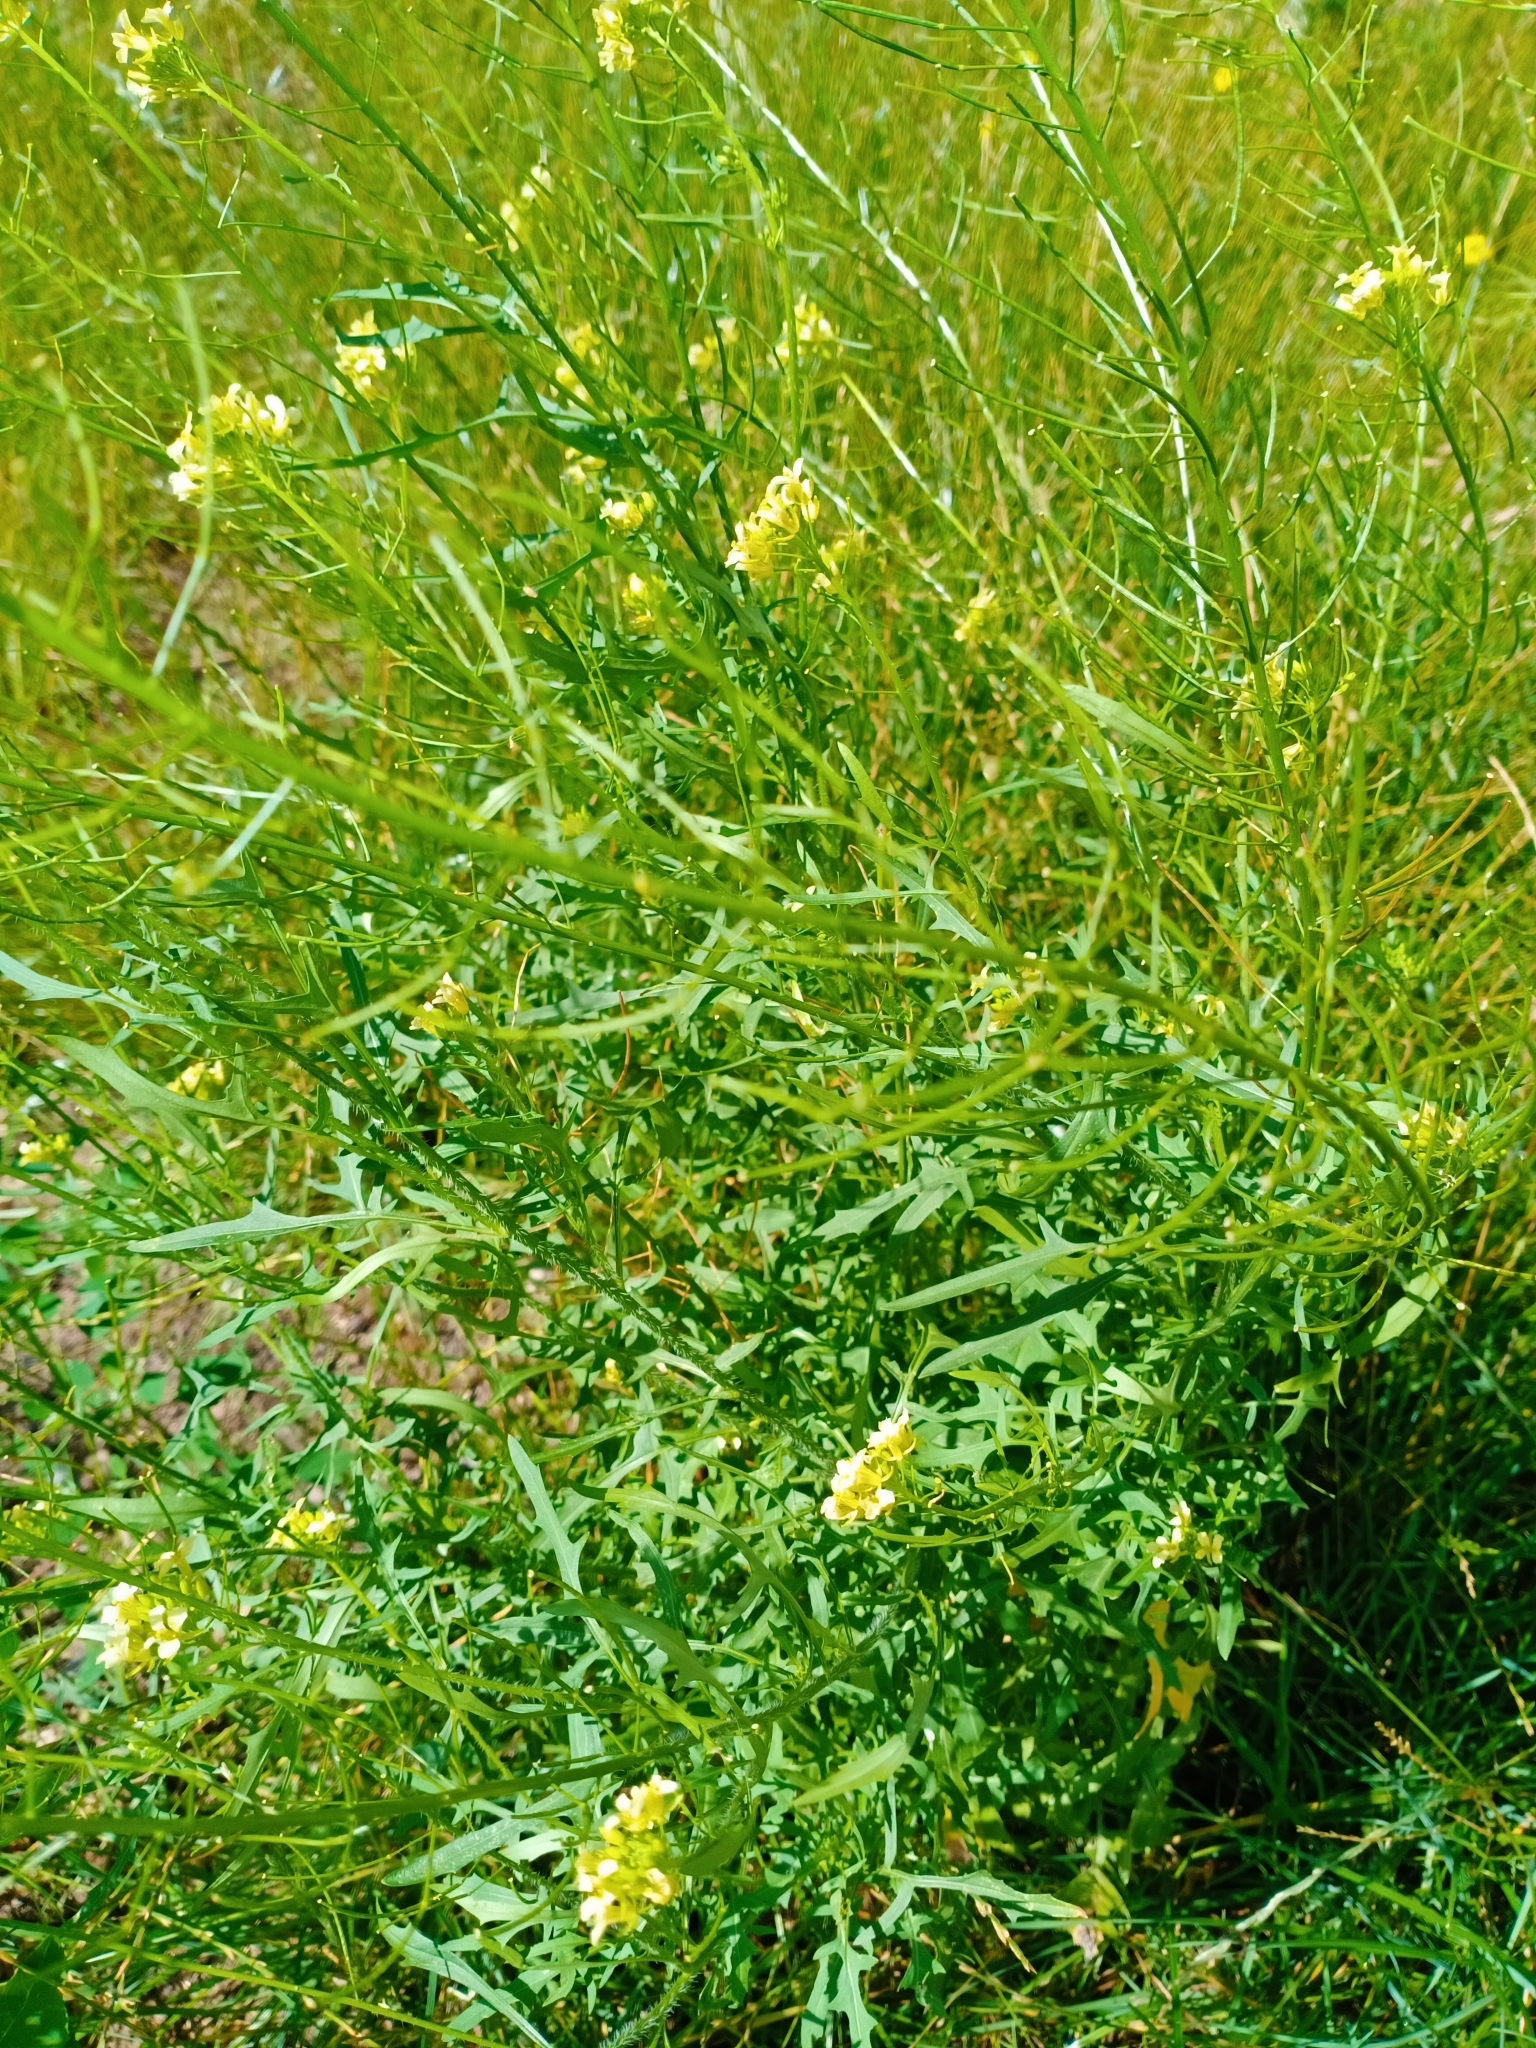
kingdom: Plantae
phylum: Tracheophyta
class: Magnoliopsida
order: Brassicales
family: Brassicaceae
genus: Sisymbrium
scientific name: Sisymbrium loeselii
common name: False london-rocket
